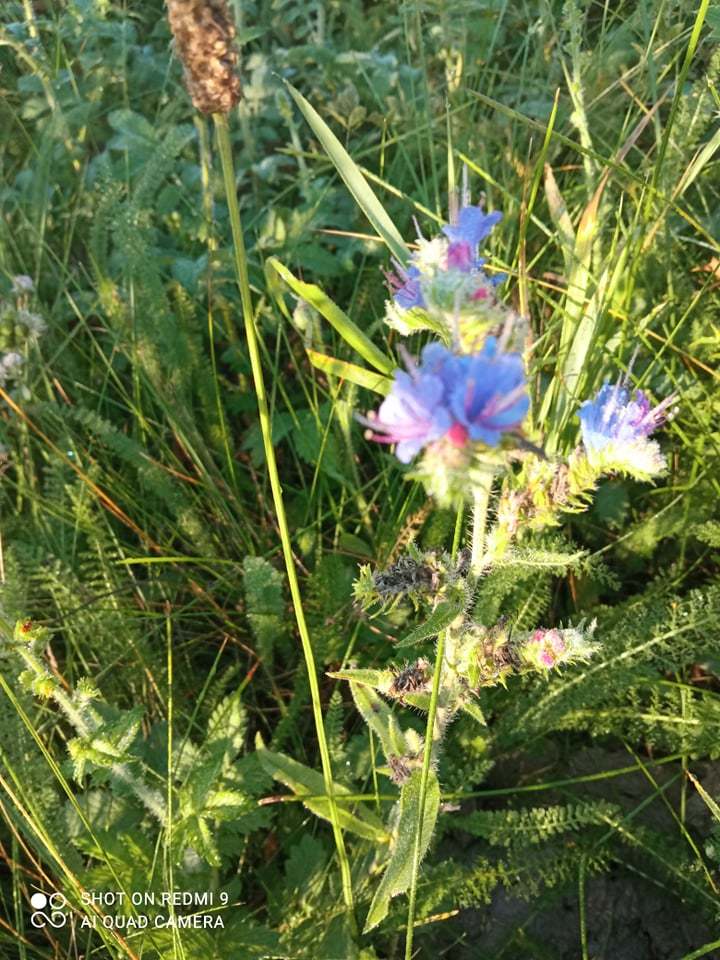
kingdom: Plantae
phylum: Tracheophyta
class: Magnoliopsida
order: Boraginales
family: Boraginaceae
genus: Echium
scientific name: Echium vulgare
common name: Common viper's bugloss
